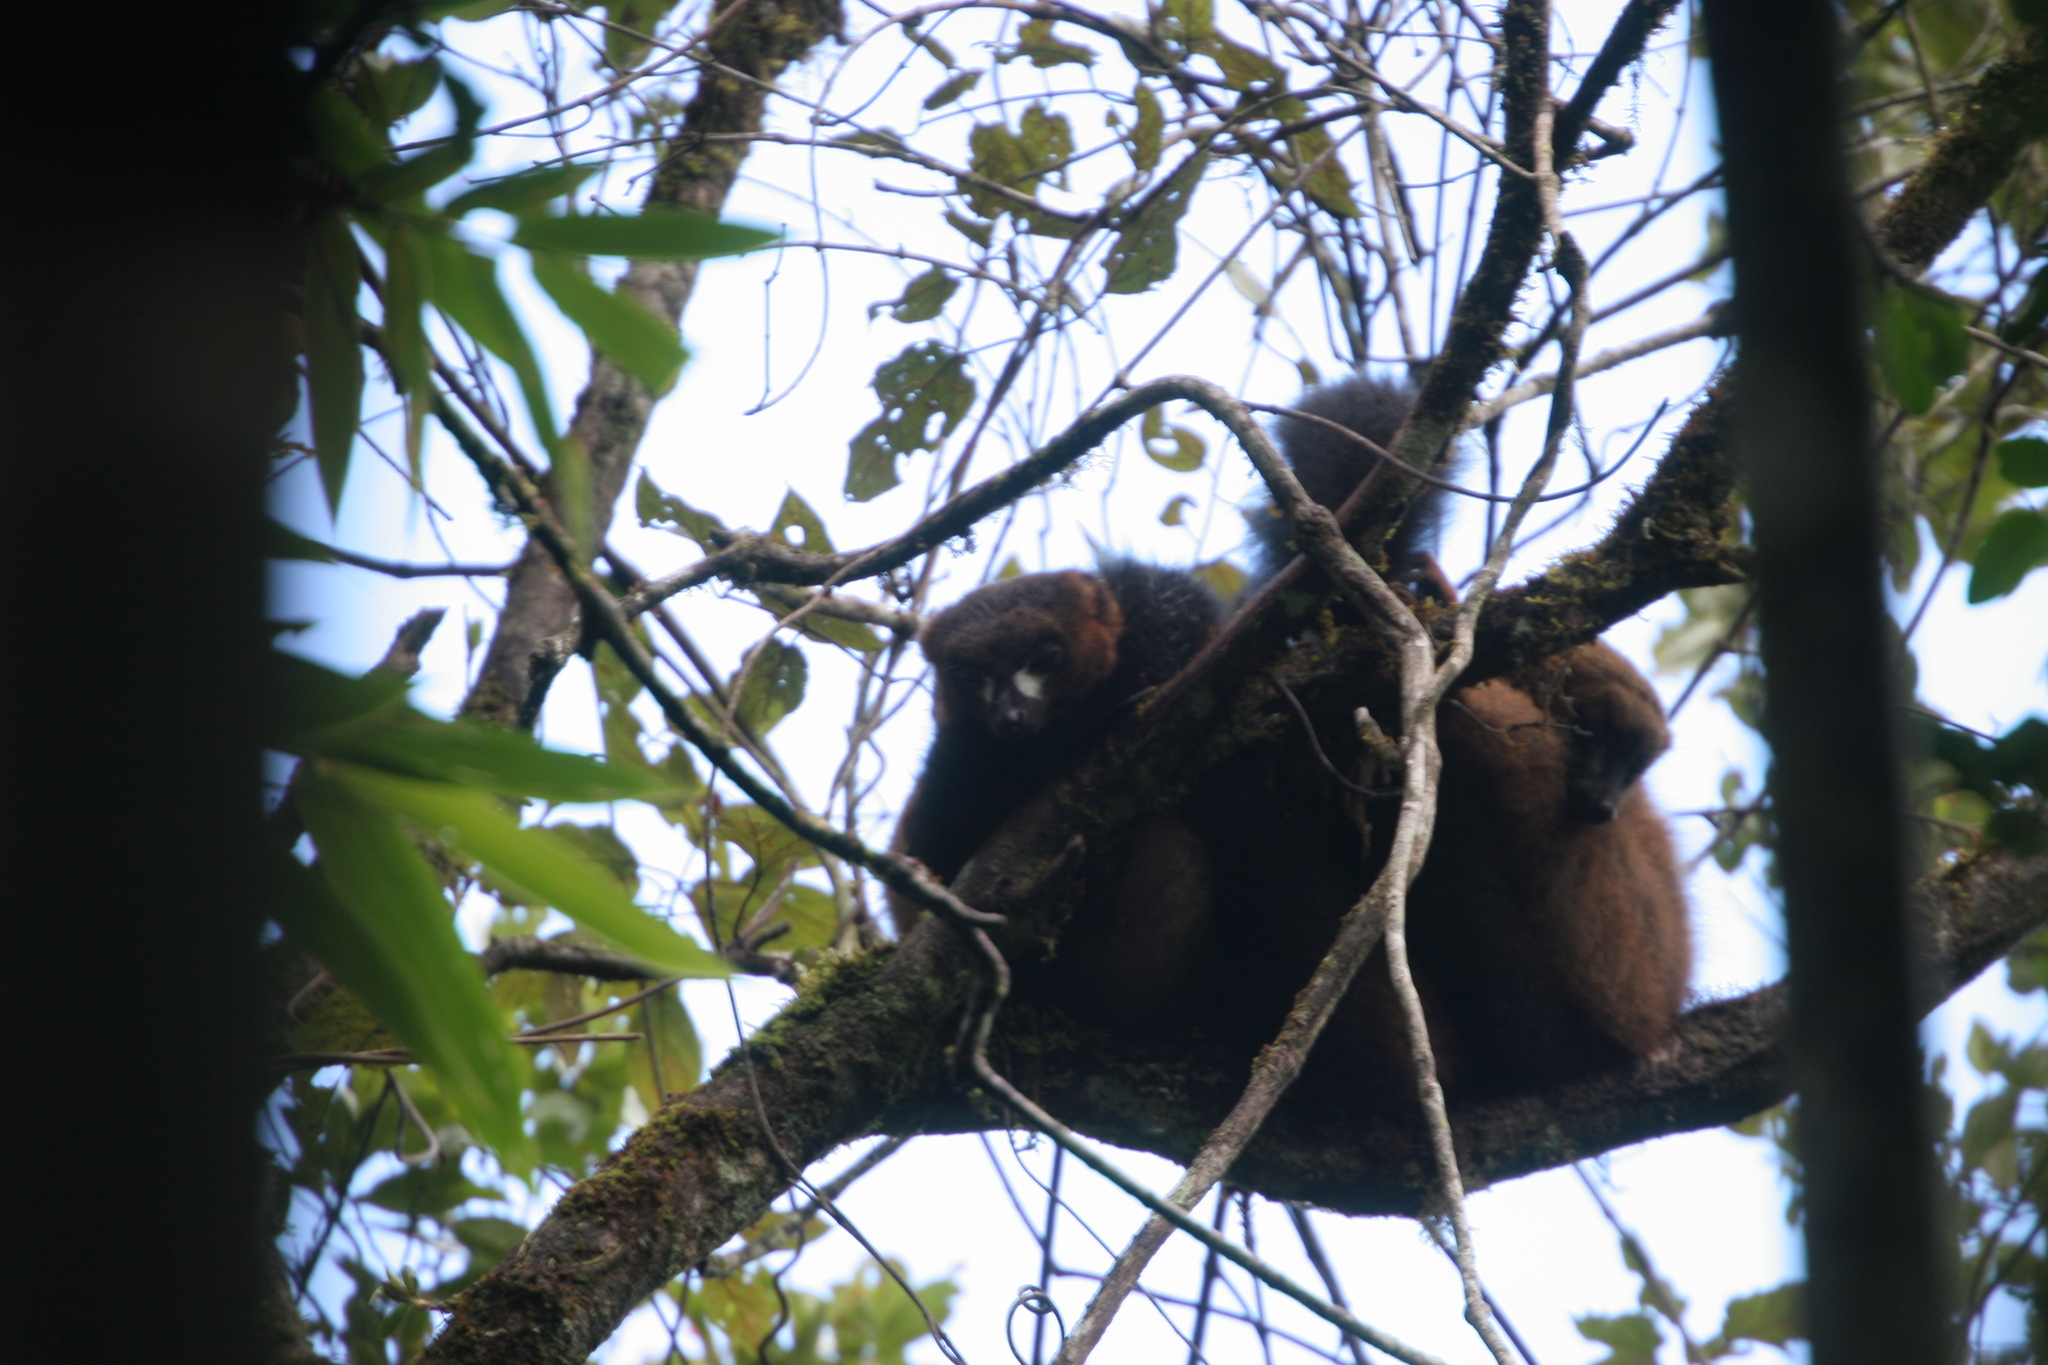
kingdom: Animalia
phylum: Chordata
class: Mammalia
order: Primates
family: Lemuridae
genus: Eulemur
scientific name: Eulemur rubriventer
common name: Red-bellied lemur
